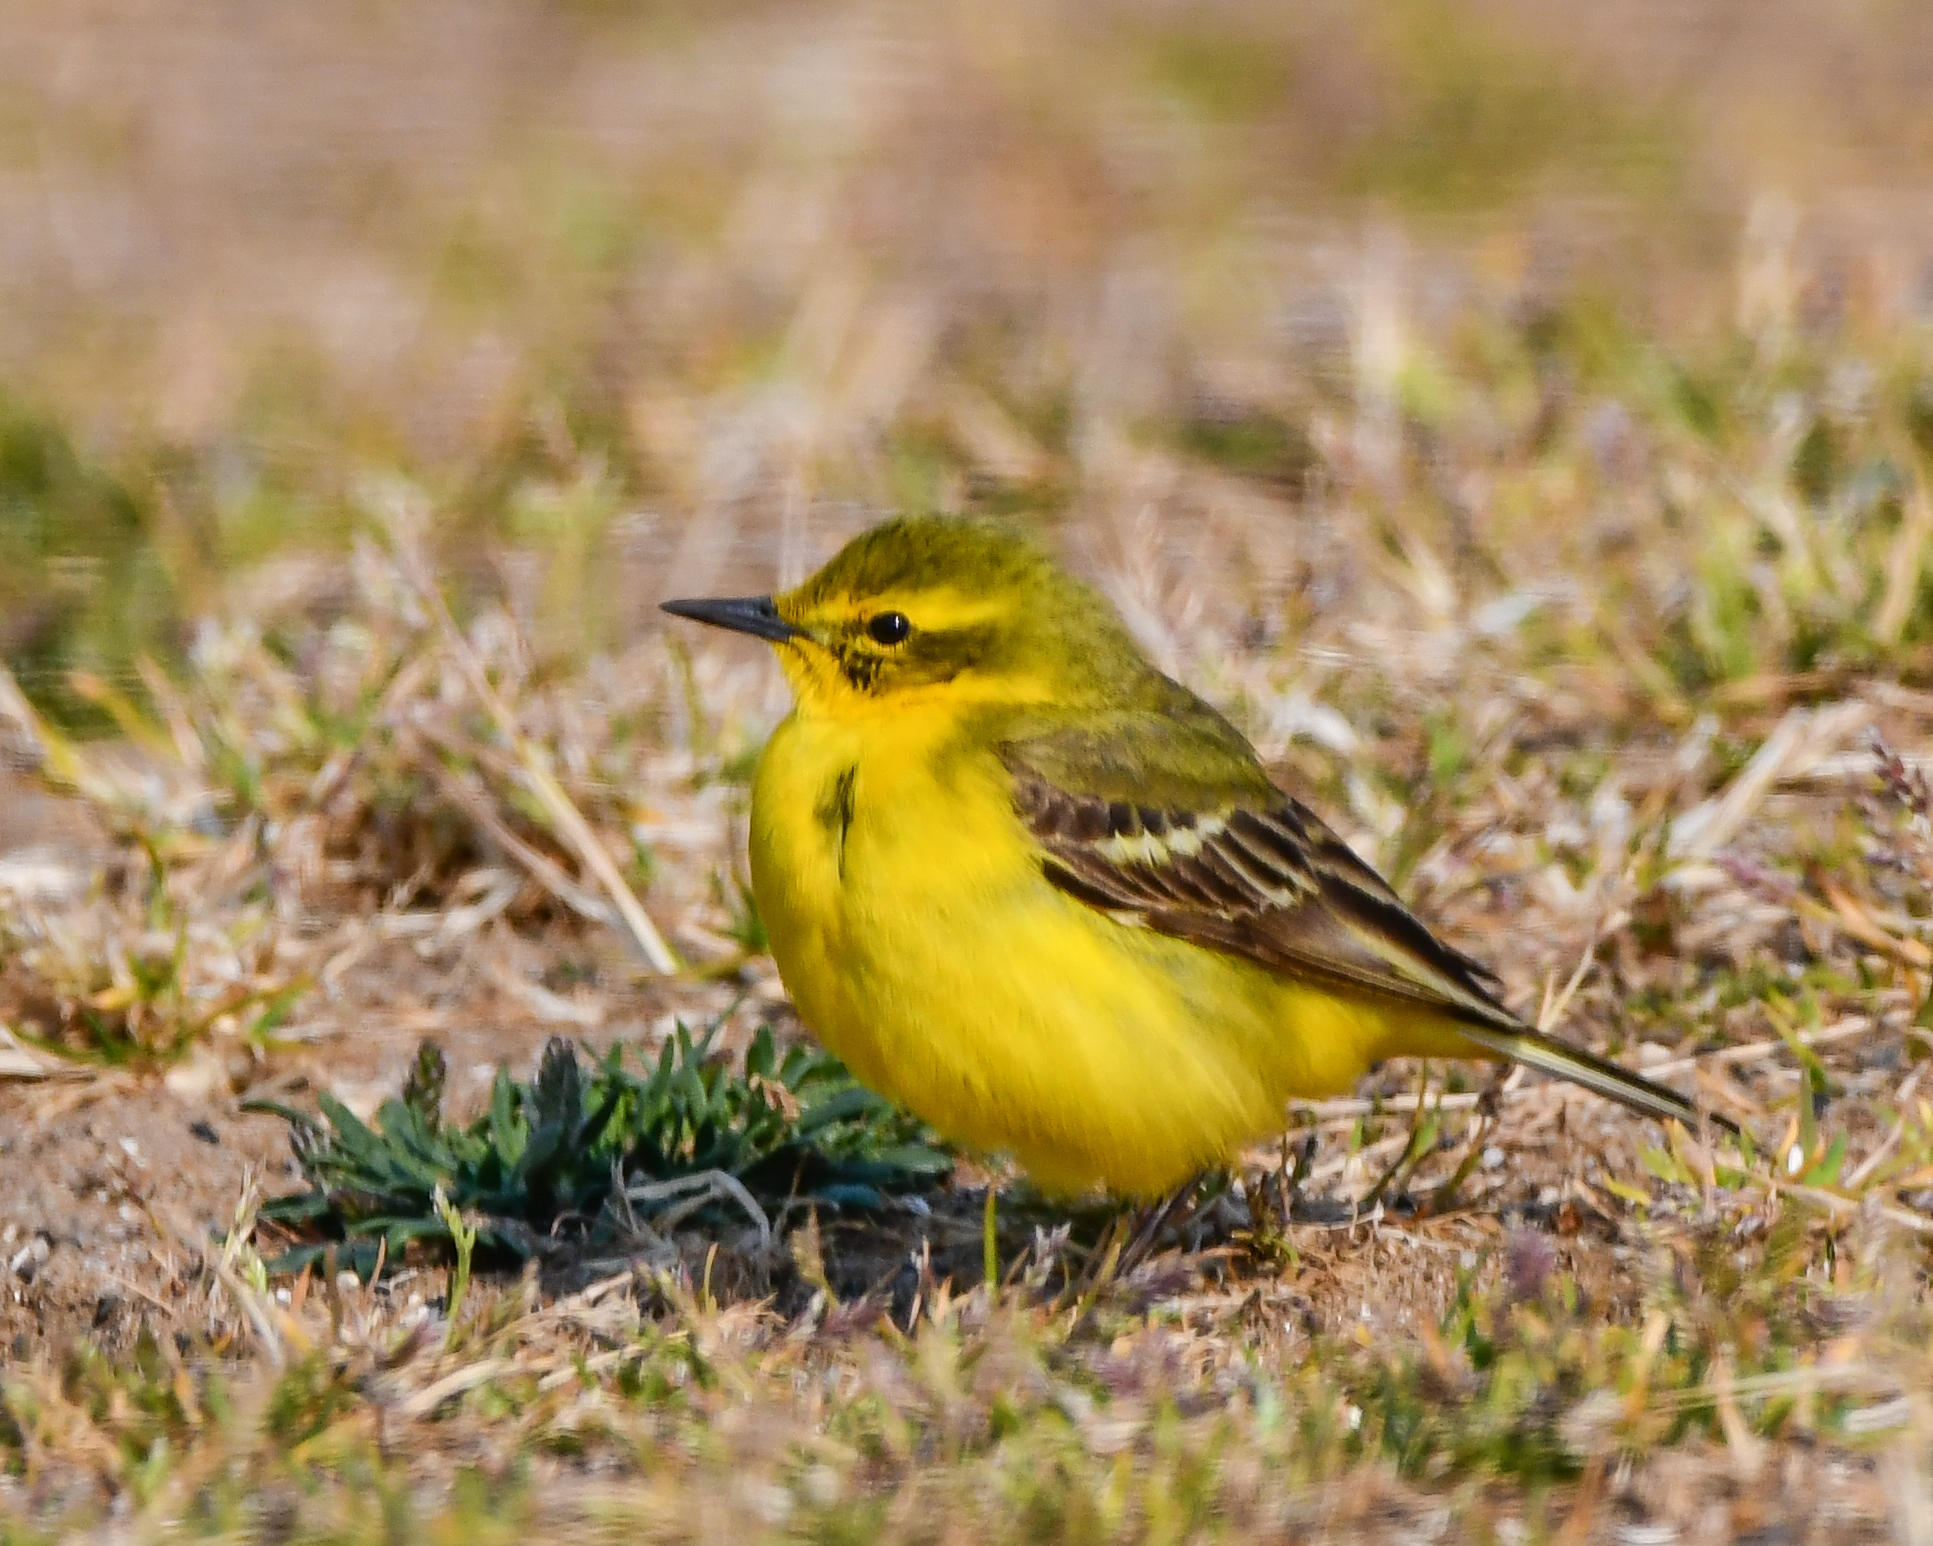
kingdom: Animalia
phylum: Chordata
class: Aves
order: Passeriformes
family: Motacillidae
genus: Motacilla
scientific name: Motacilla flava
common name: Western yellow wagtail
